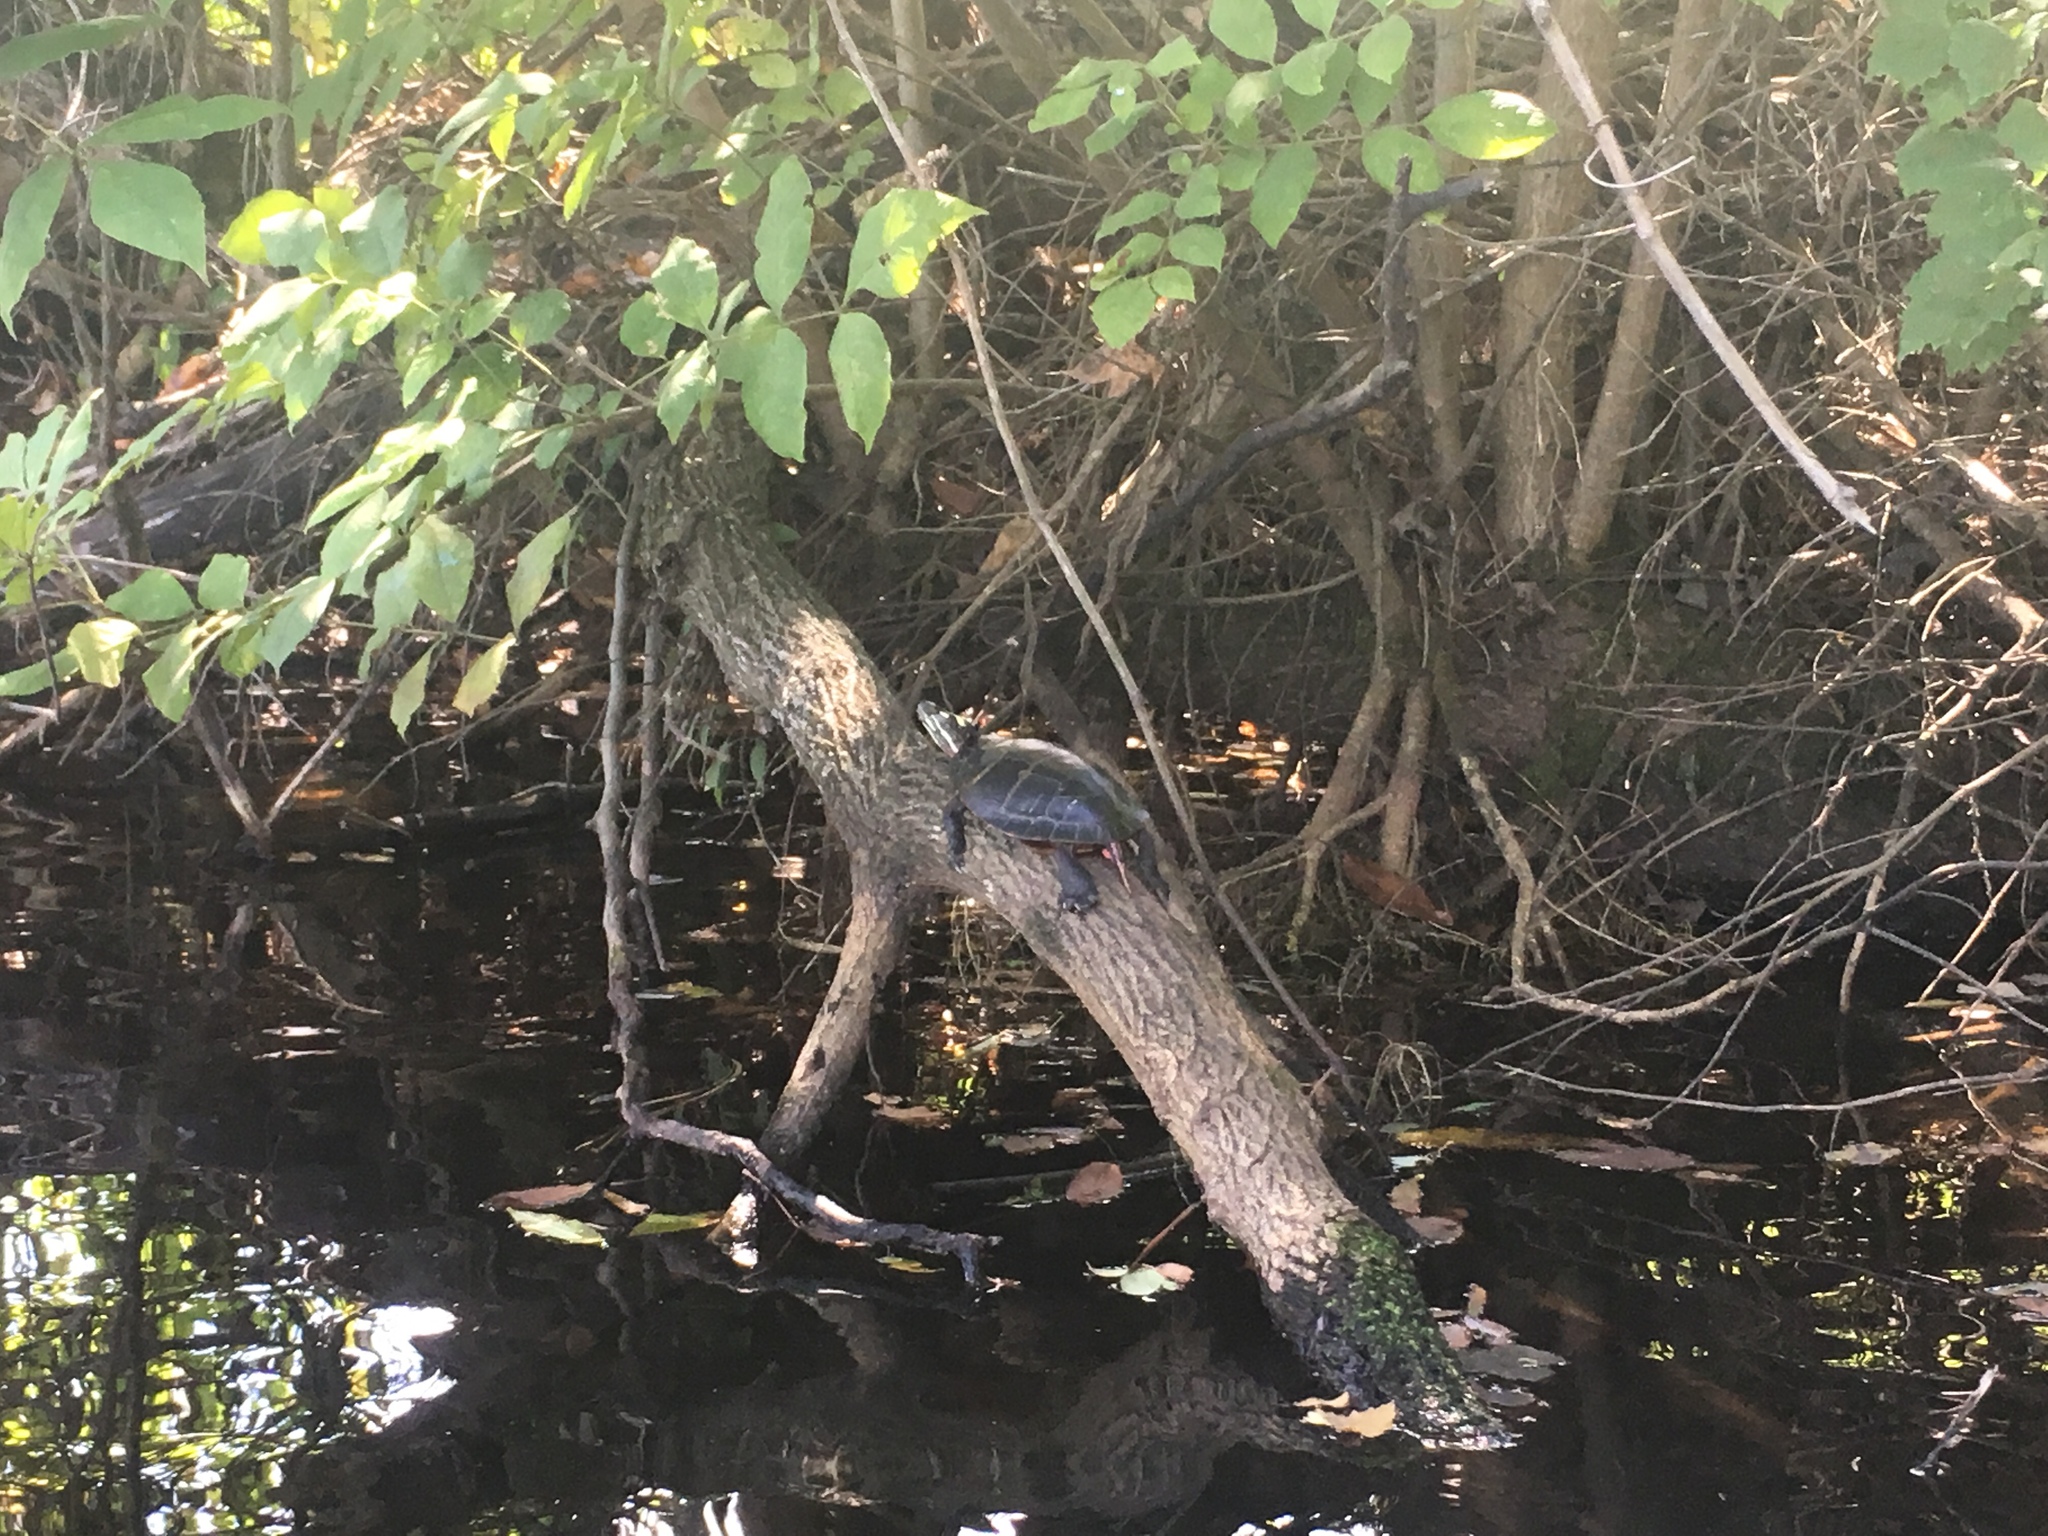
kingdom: Animalia
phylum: Chordata
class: Testudines
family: Emydidae
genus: Chrysemys
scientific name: Chrysemys picta
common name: Painted turtle
